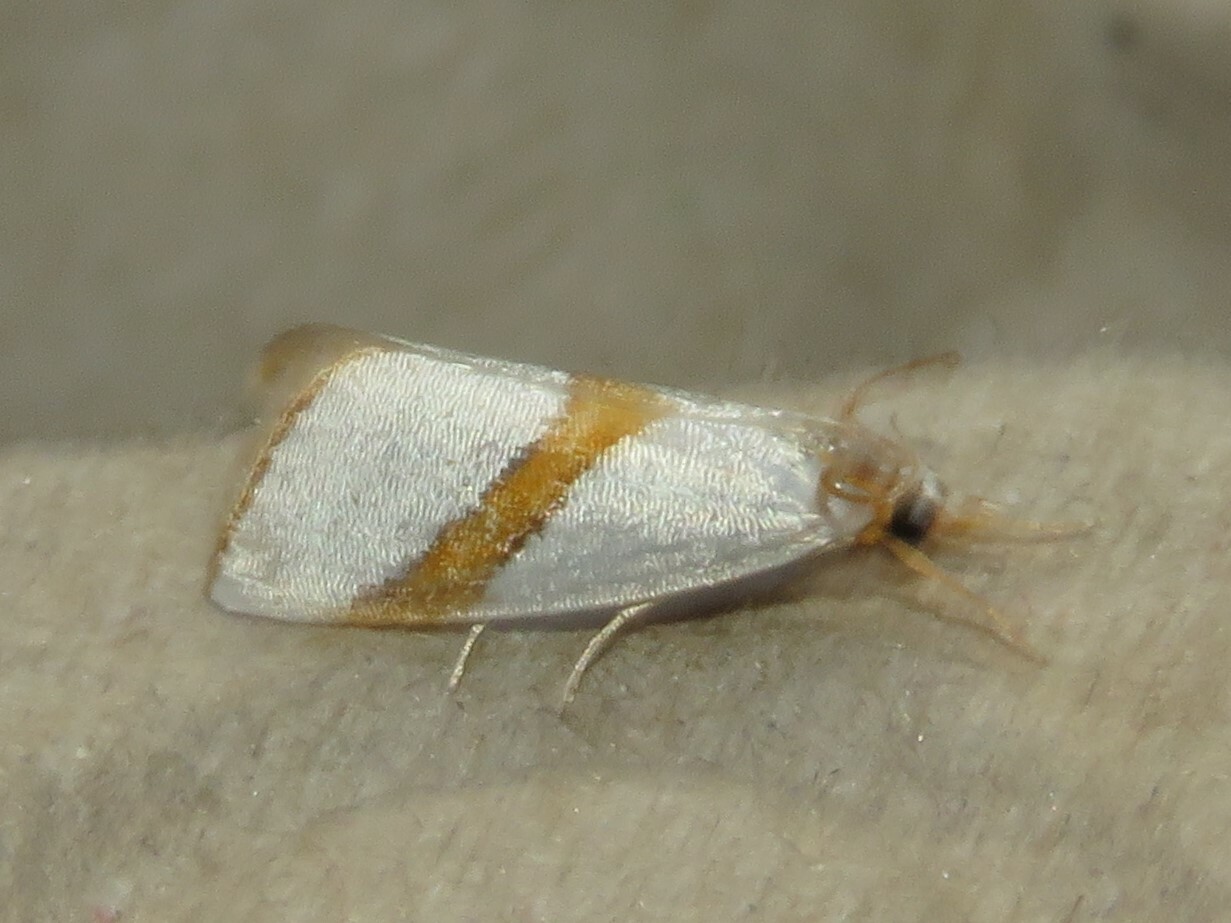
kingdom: Animalia
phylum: Arthropoda
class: Insecta
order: Lepidoptera
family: Crambidae
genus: Vaxi
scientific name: Vaxi critica
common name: Straight-lined vaxi moth
